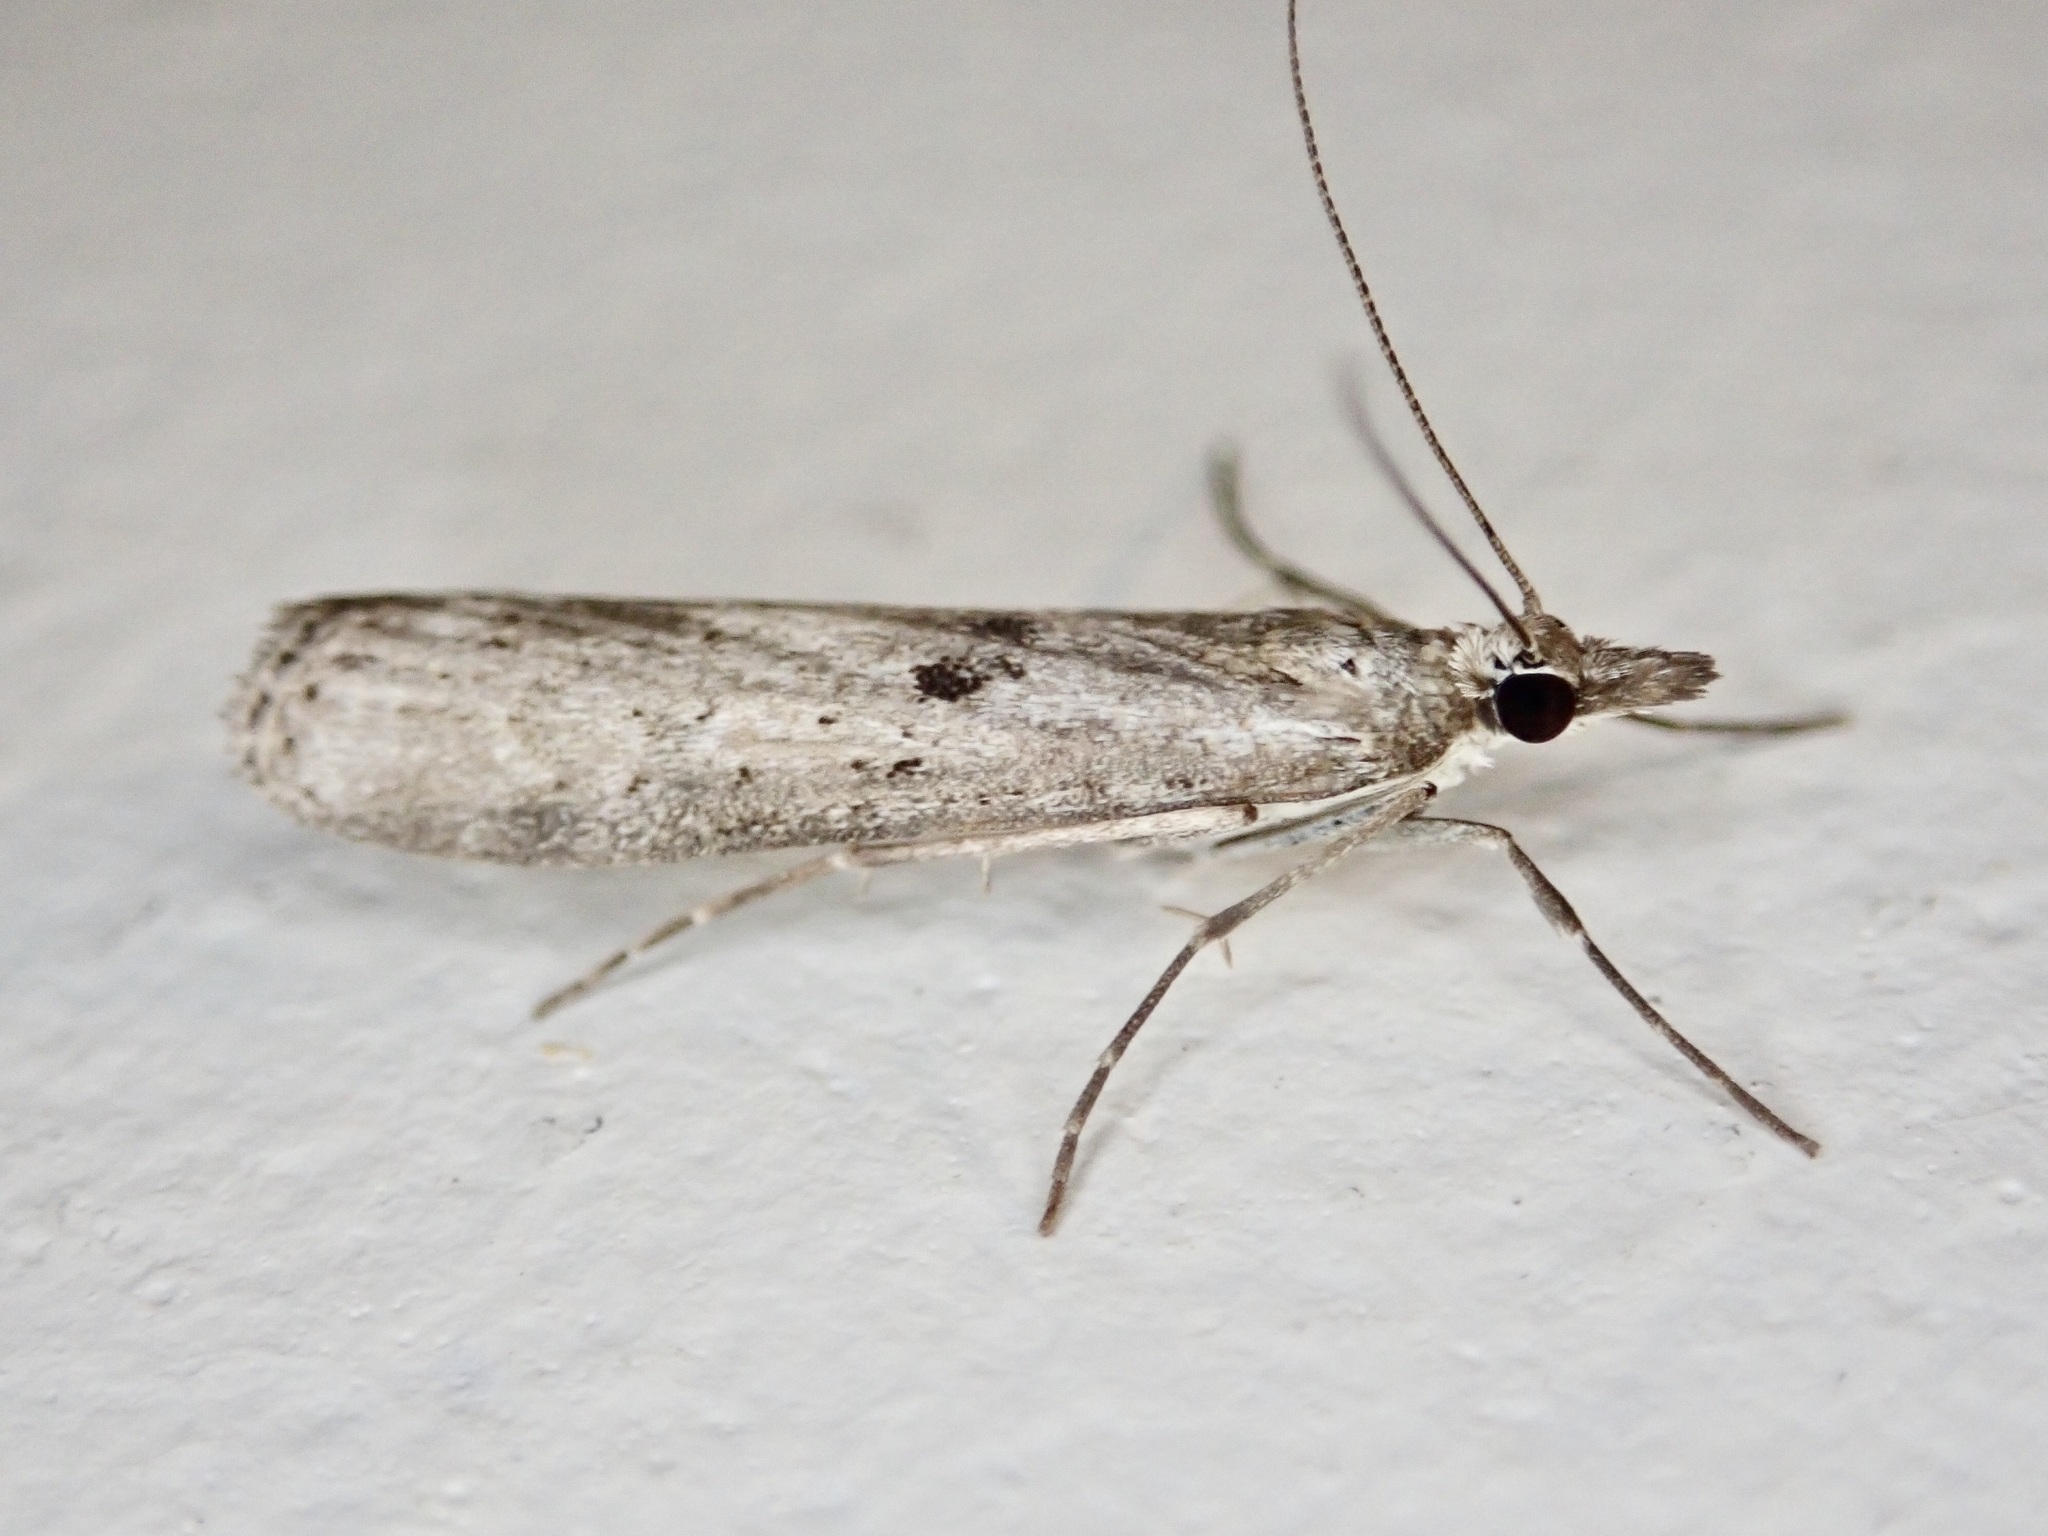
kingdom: Animalia
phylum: Arthropoda
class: Insecta
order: Lepidoptera
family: Crambidae
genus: Eudonia
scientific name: Eudonia leptalea
